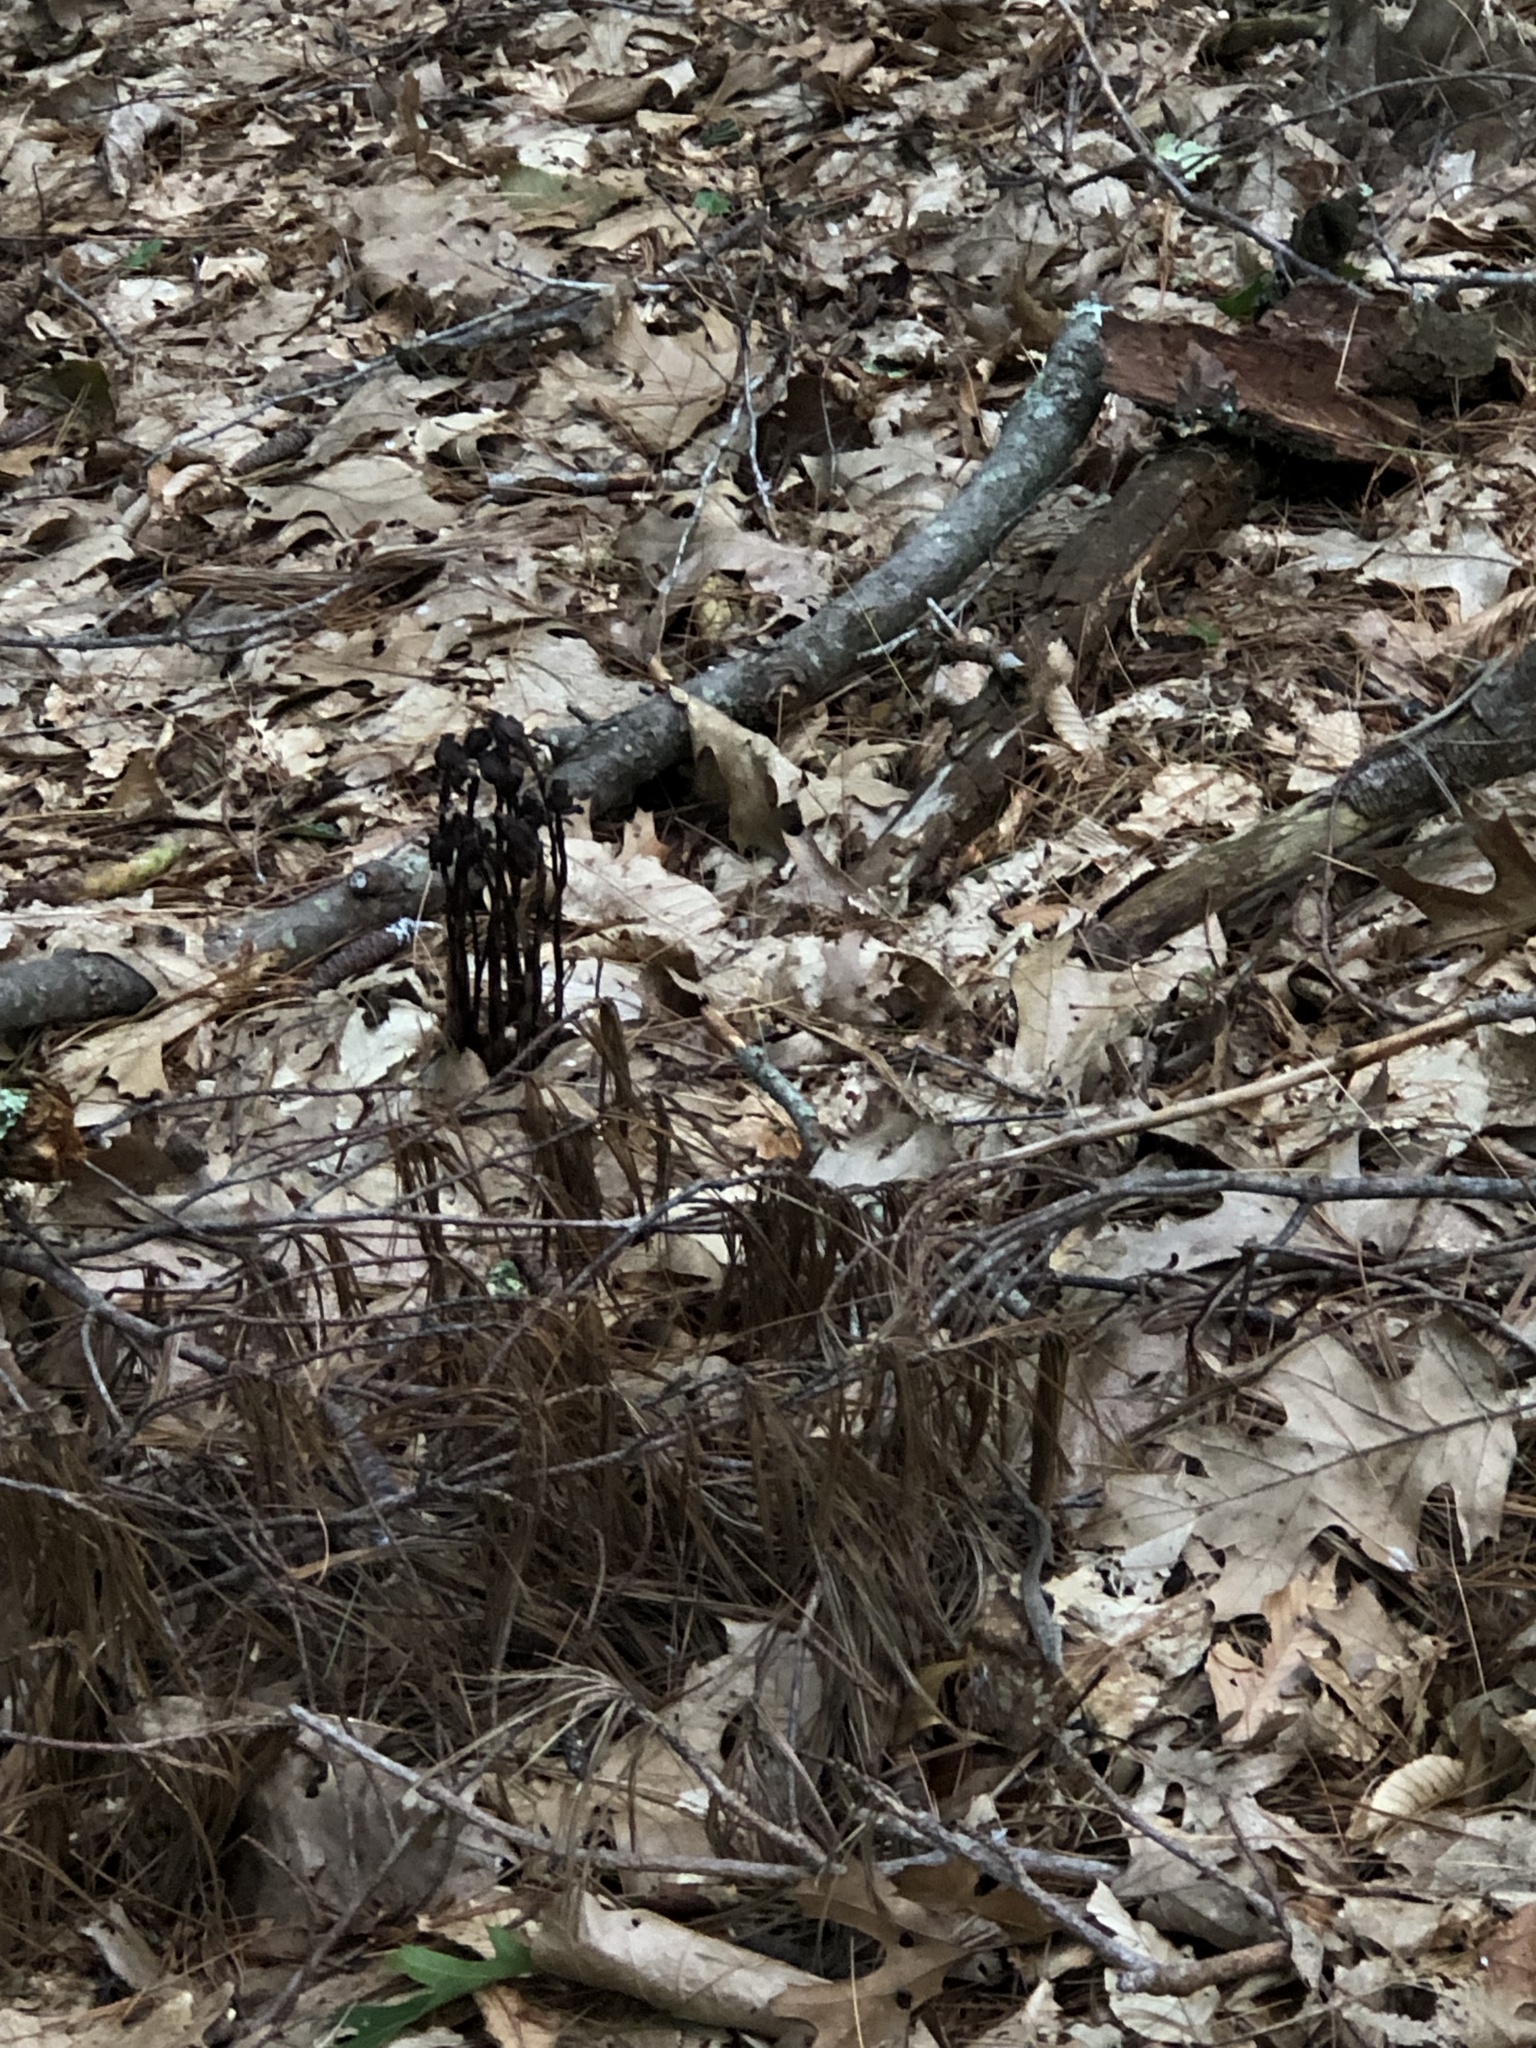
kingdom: Plantae
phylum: Tracheophyta
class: Magnoliopsida
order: Ericales
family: Ericaceae
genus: Monotropa
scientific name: Monotropa uniflora
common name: Convulsion root
